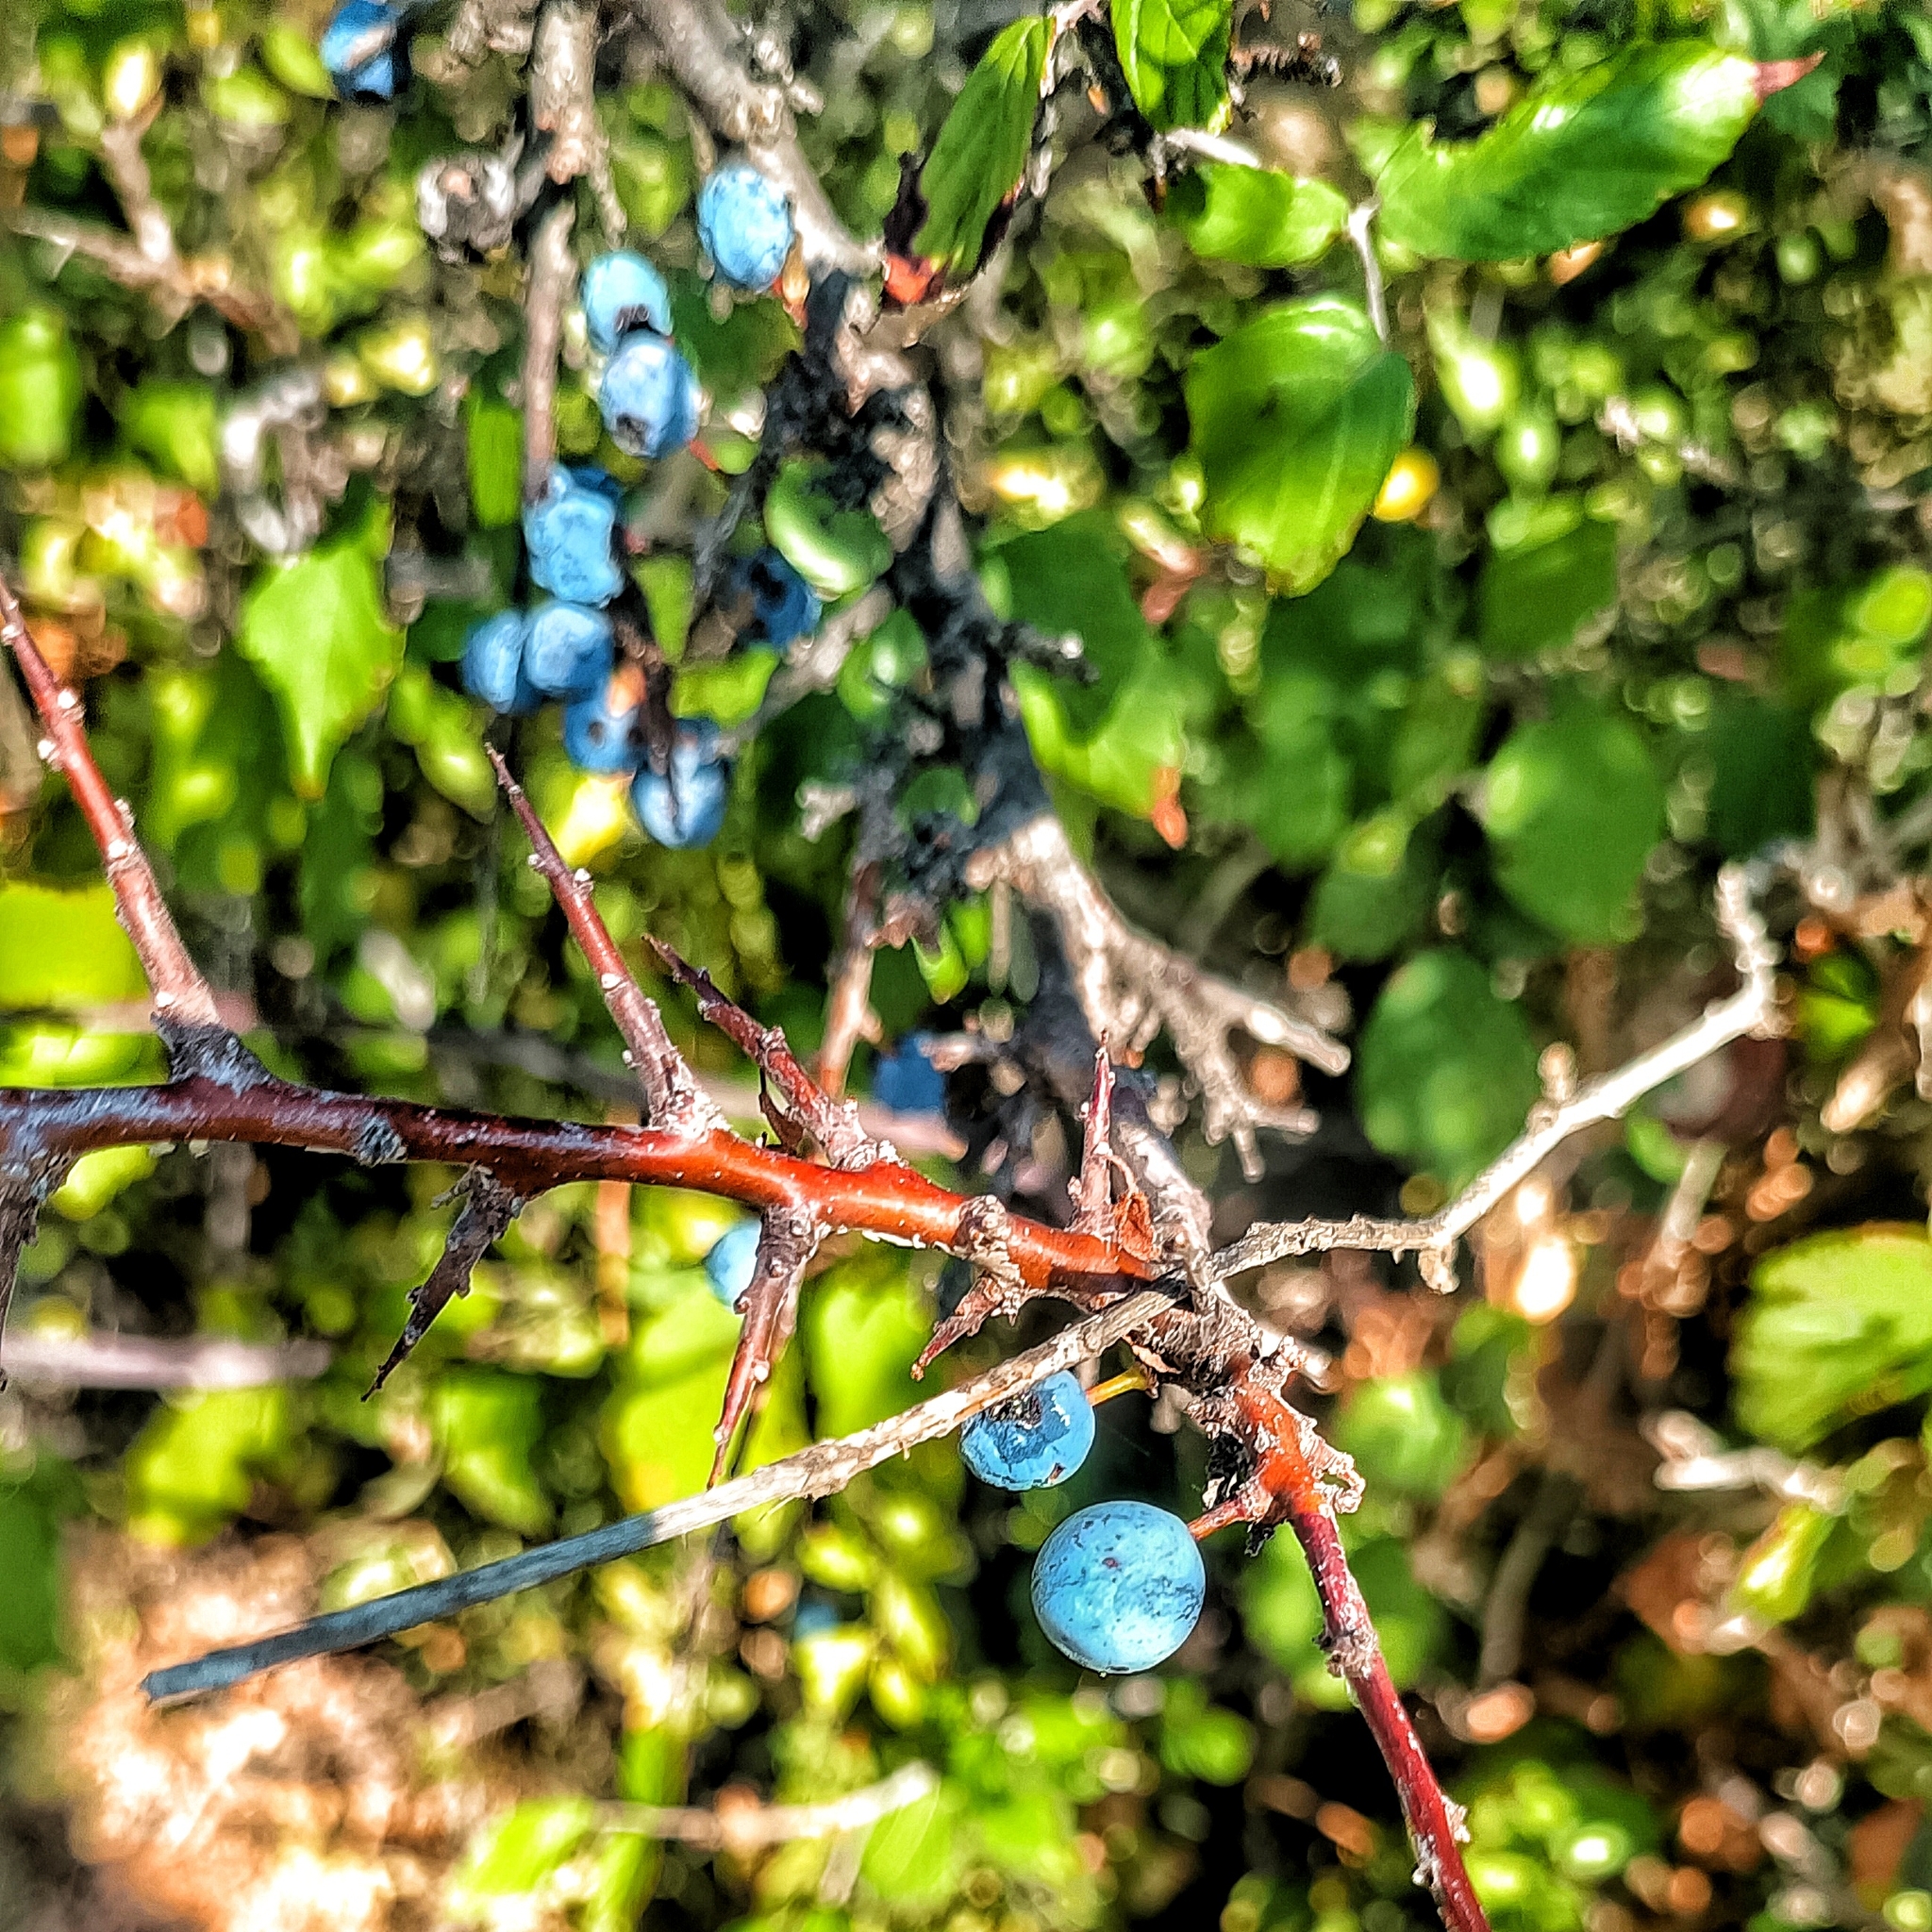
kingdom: Plantae
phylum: Tracheophyta
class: Magnoliopsida
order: Rosales
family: Rosaceae
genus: Prunus
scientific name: Prunus spinosa
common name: Blackthorn
